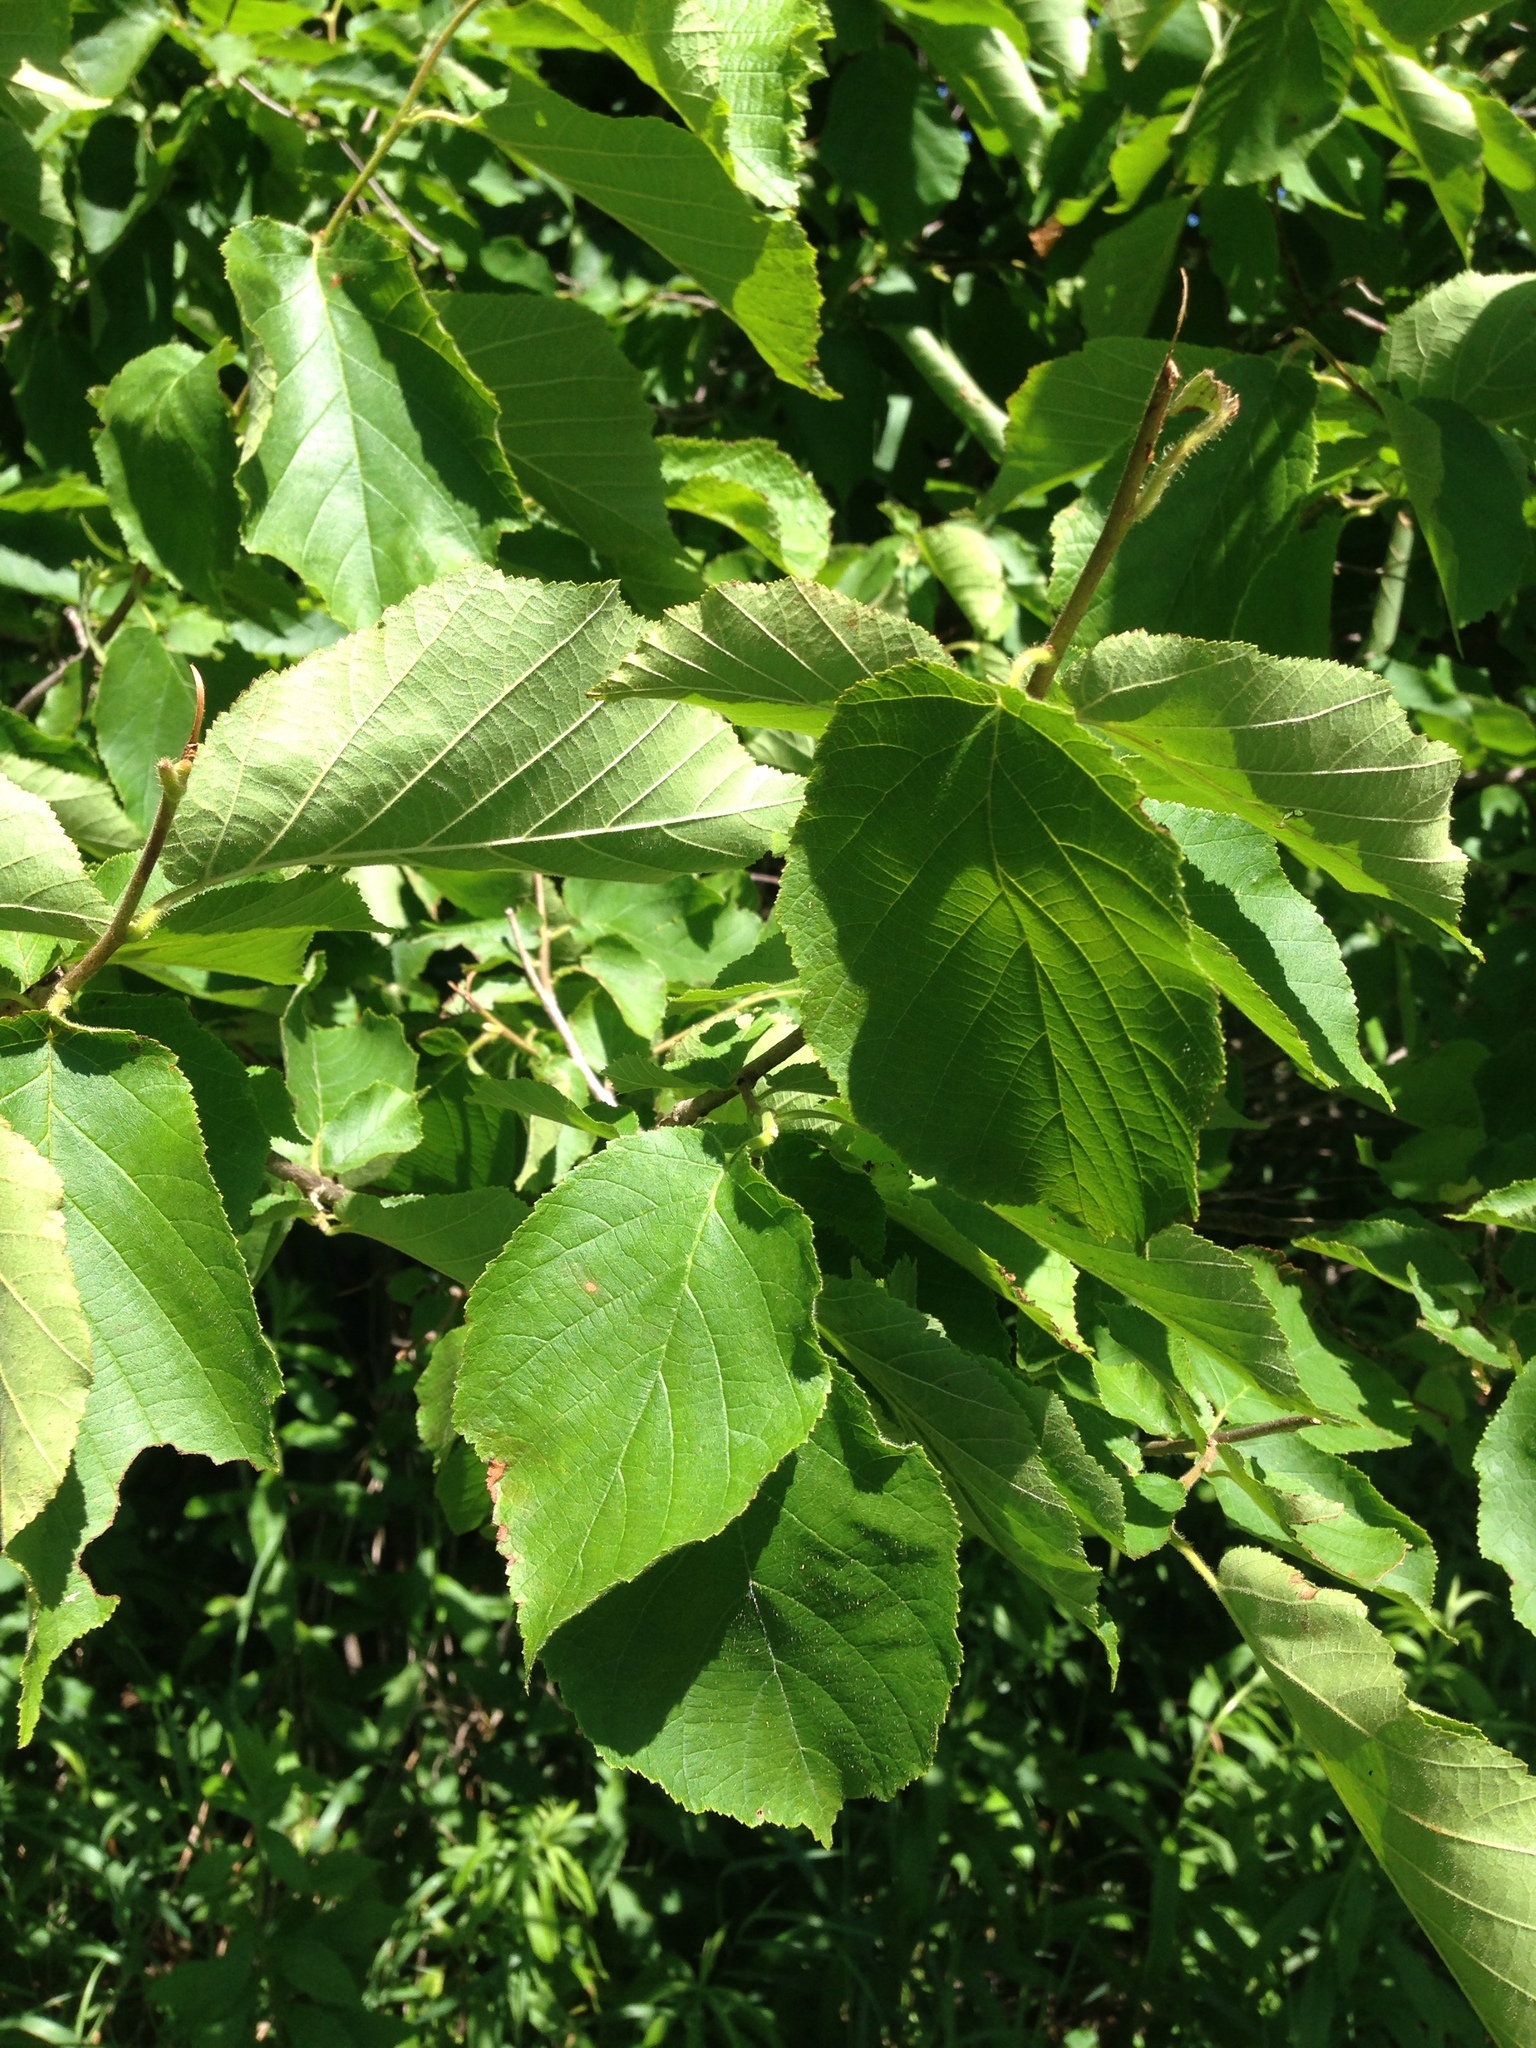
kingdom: Plantae
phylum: Tracheophyta
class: Magnoliopsida
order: Fagales
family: Betulaceae
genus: Corylus
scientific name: Corylus americana
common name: American hazel
